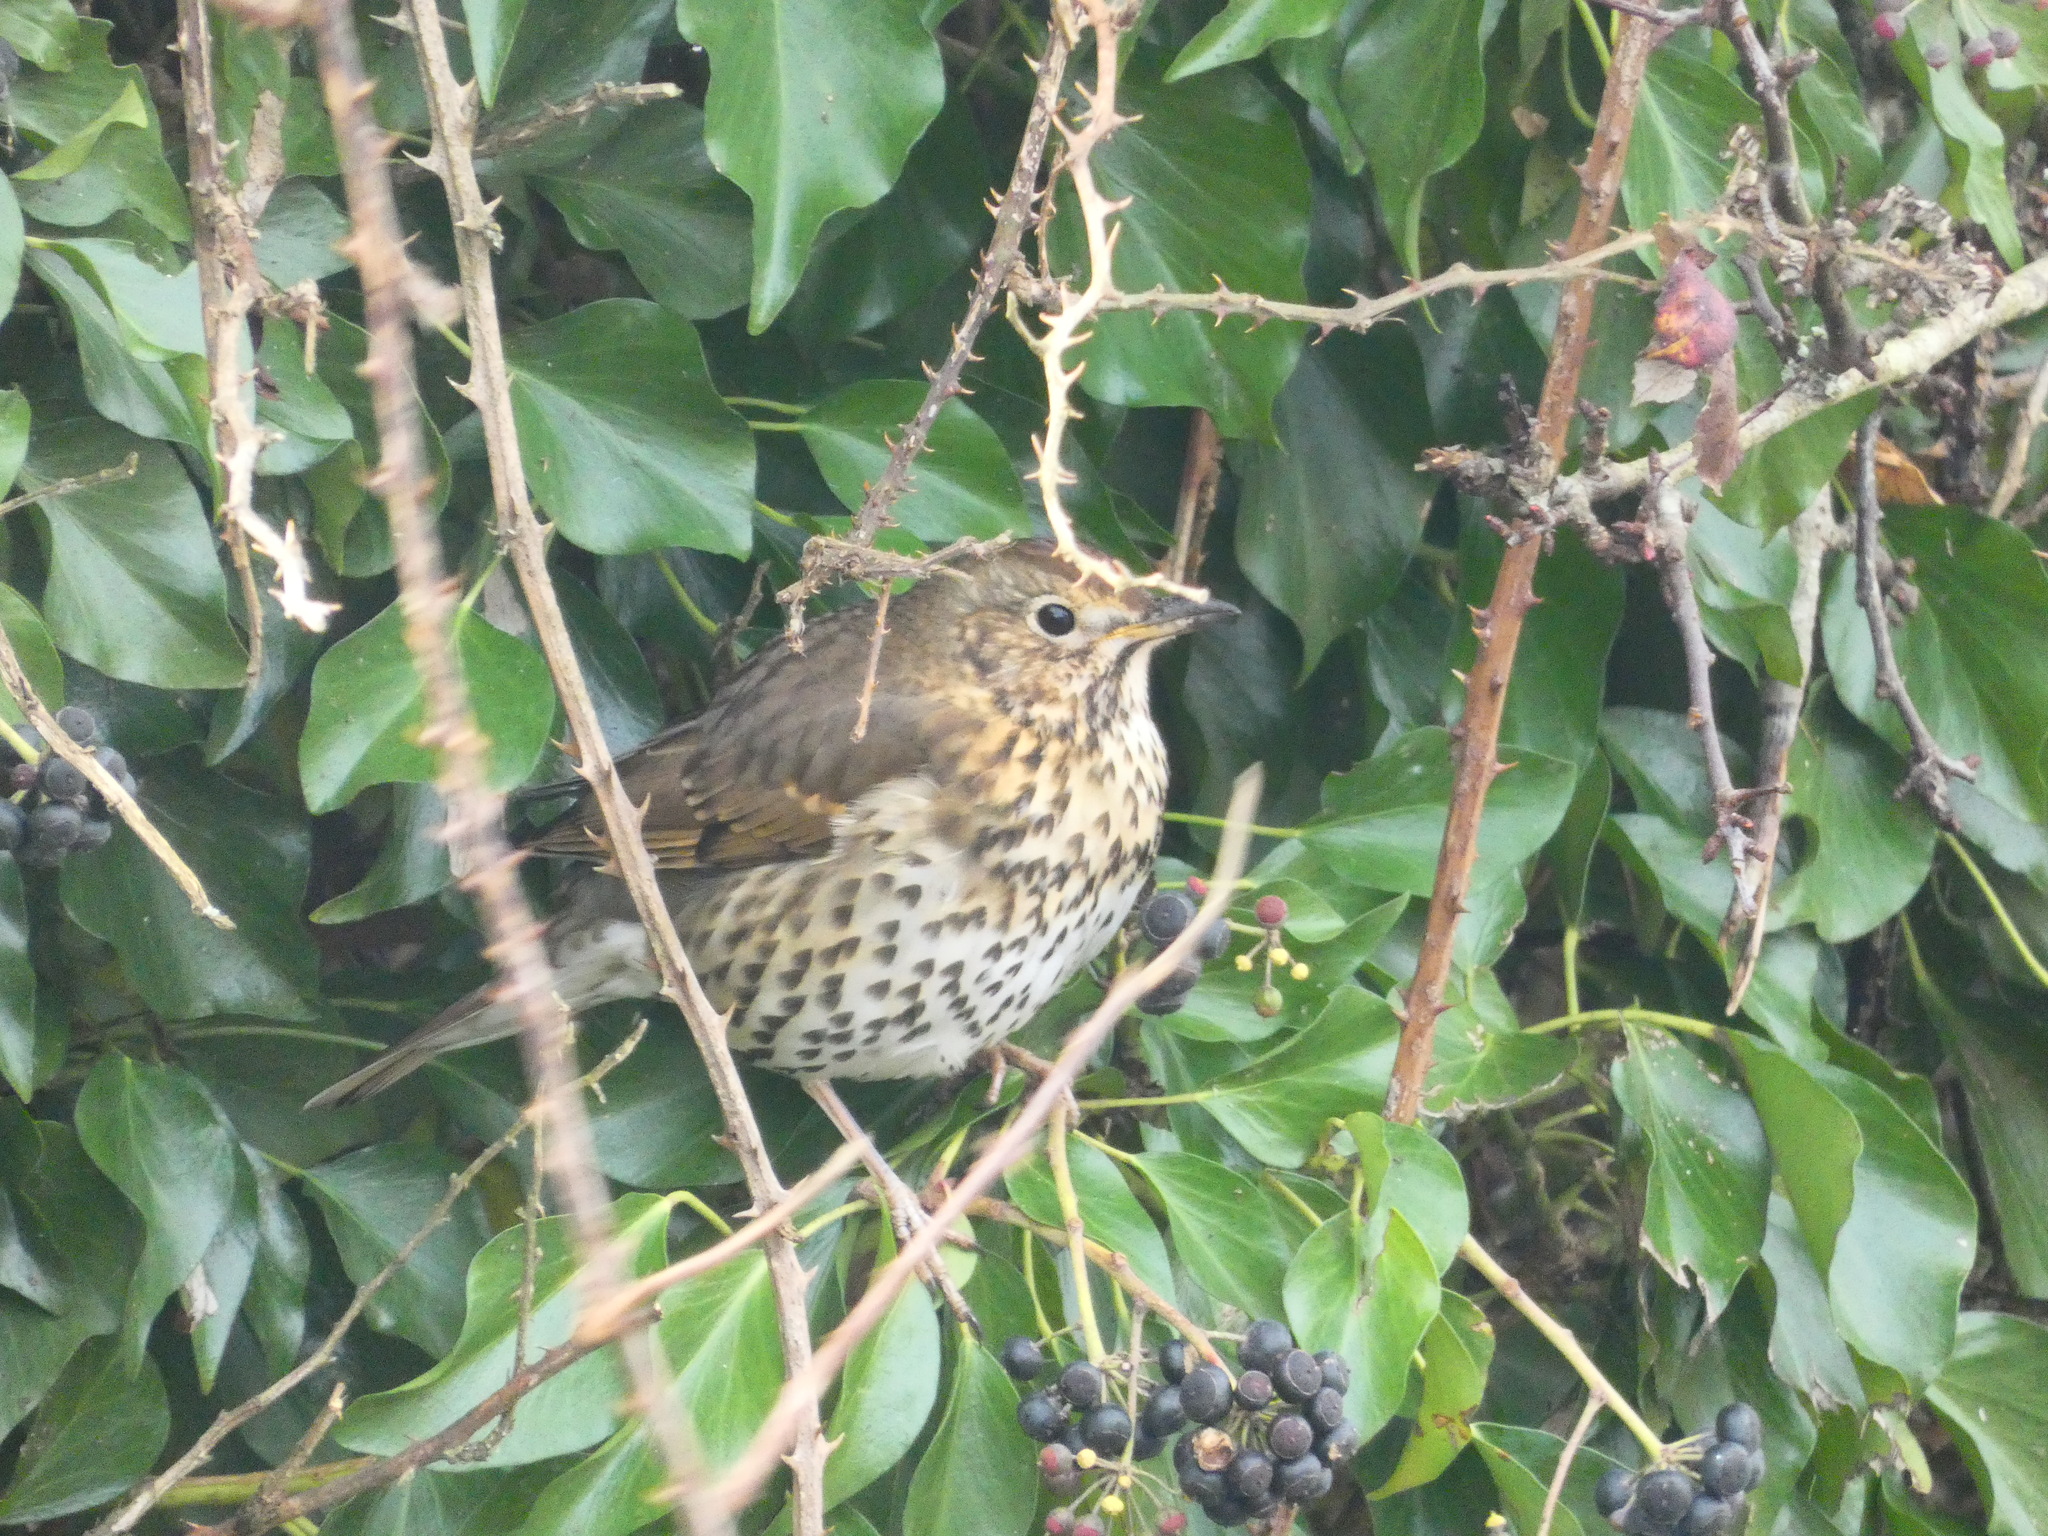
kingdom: Animalia
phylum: Chordata
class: Aves
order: Passeriformes
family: Turdidae
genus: Turdus
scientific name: Turdus philomelos
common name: Song thrush
